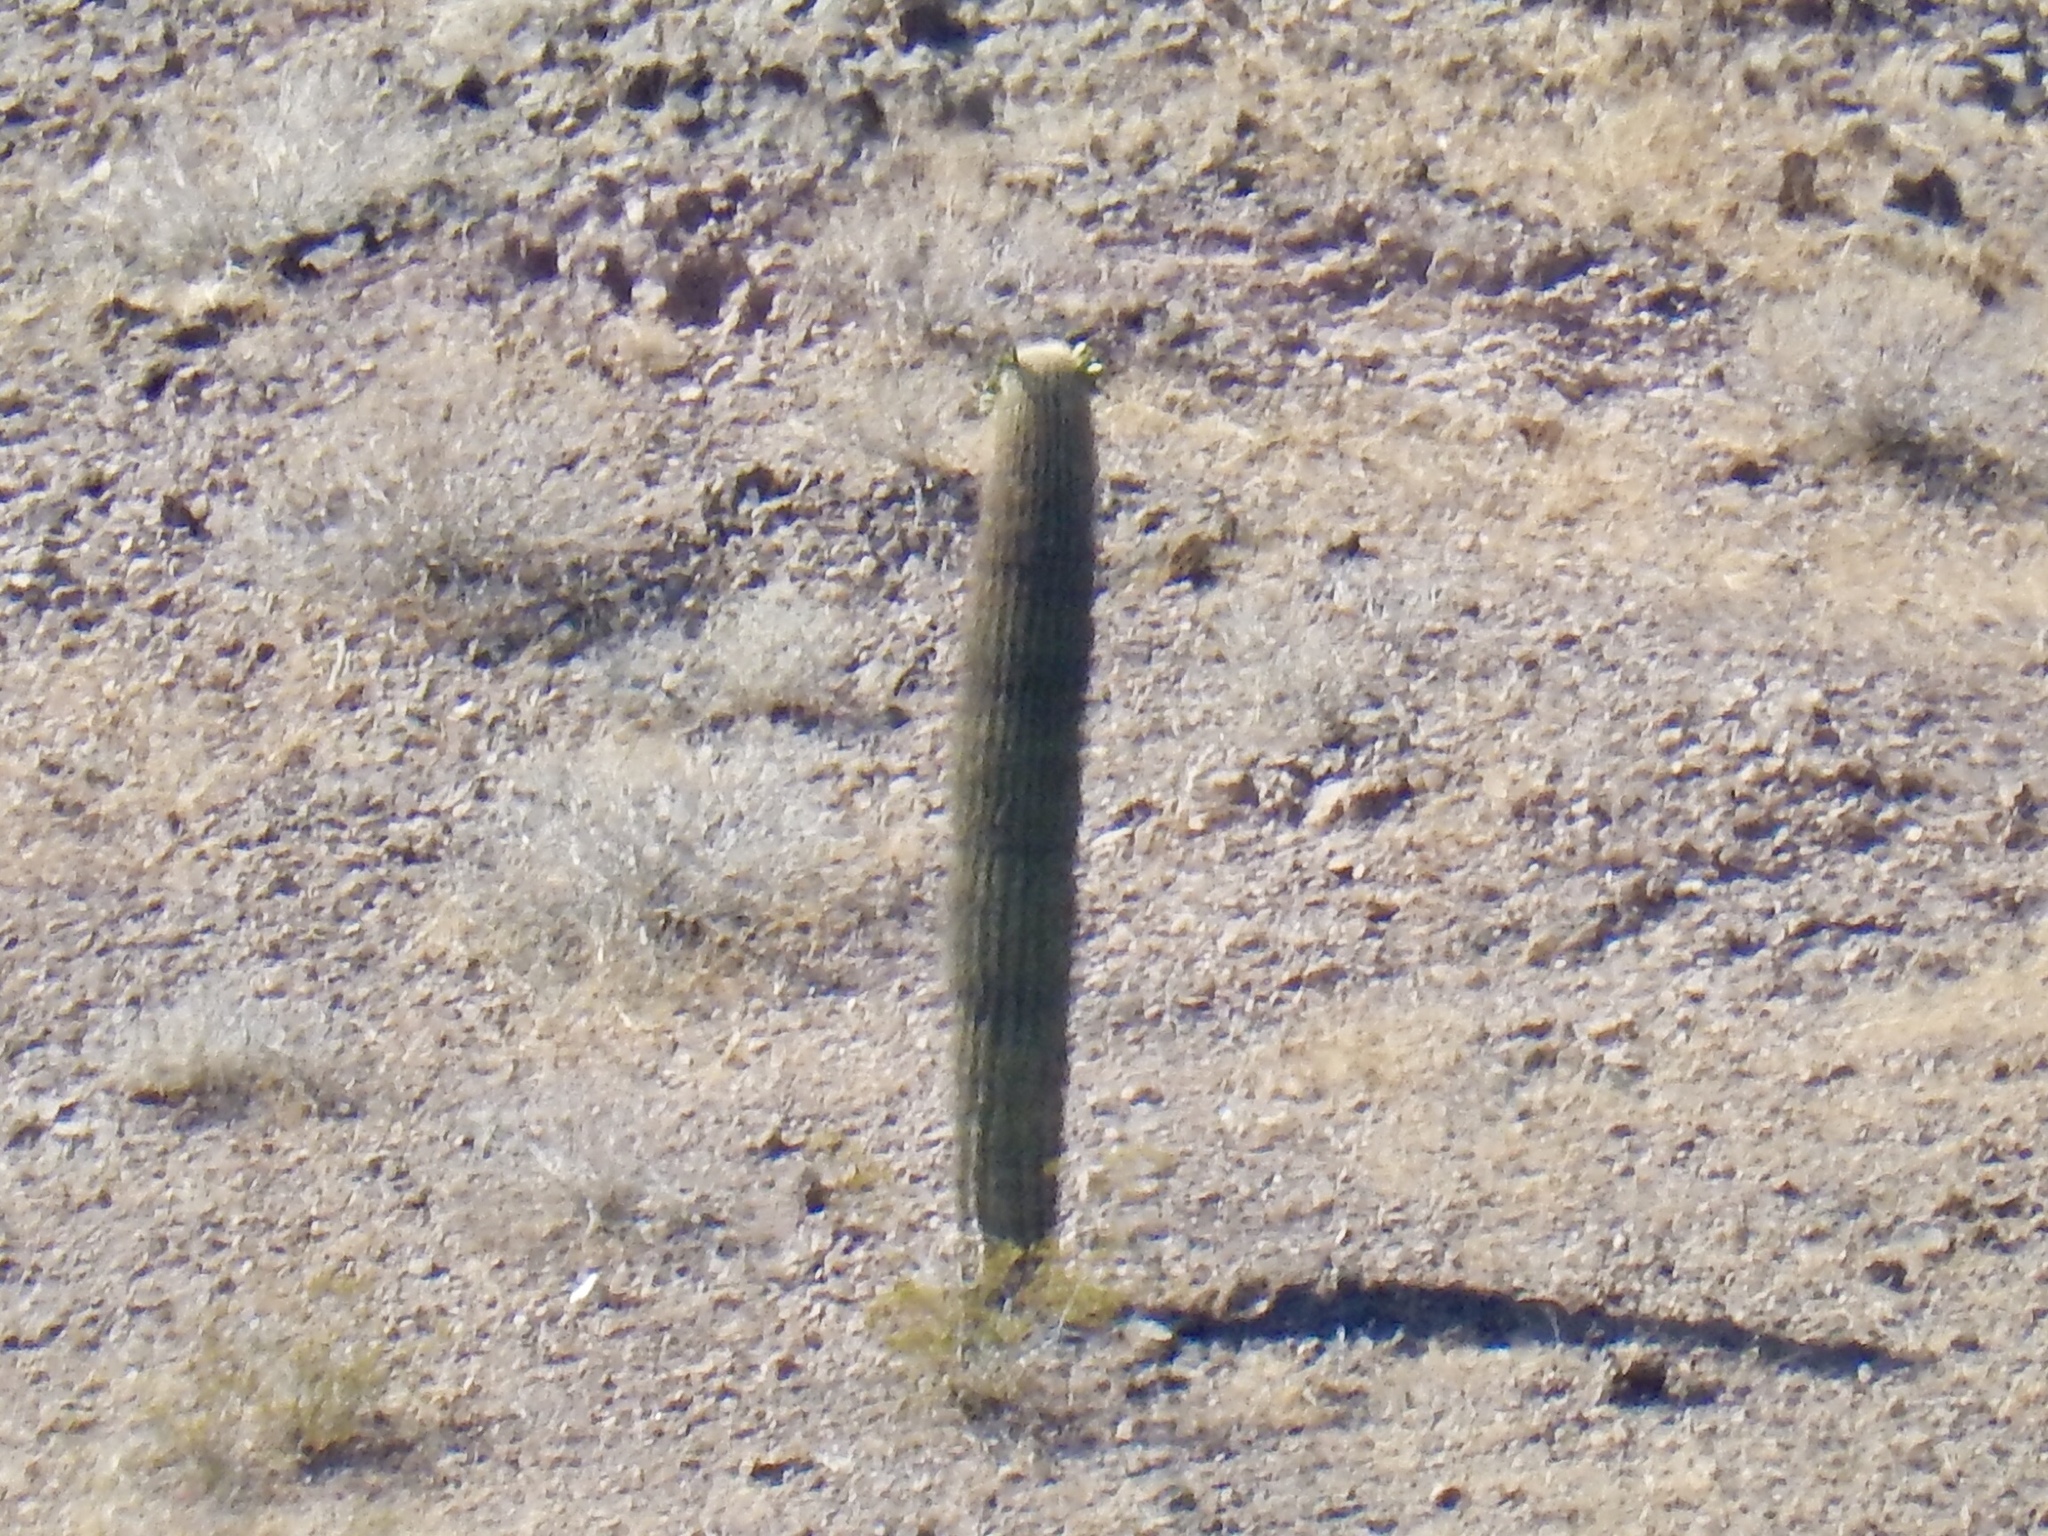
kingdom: Plantae
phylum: Tracheophyta
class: Magnoliopsida
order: Caryophyllales
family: Cactaceae
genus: Carnegiea
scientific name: Carnegiea gigantea
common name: Saguaro
